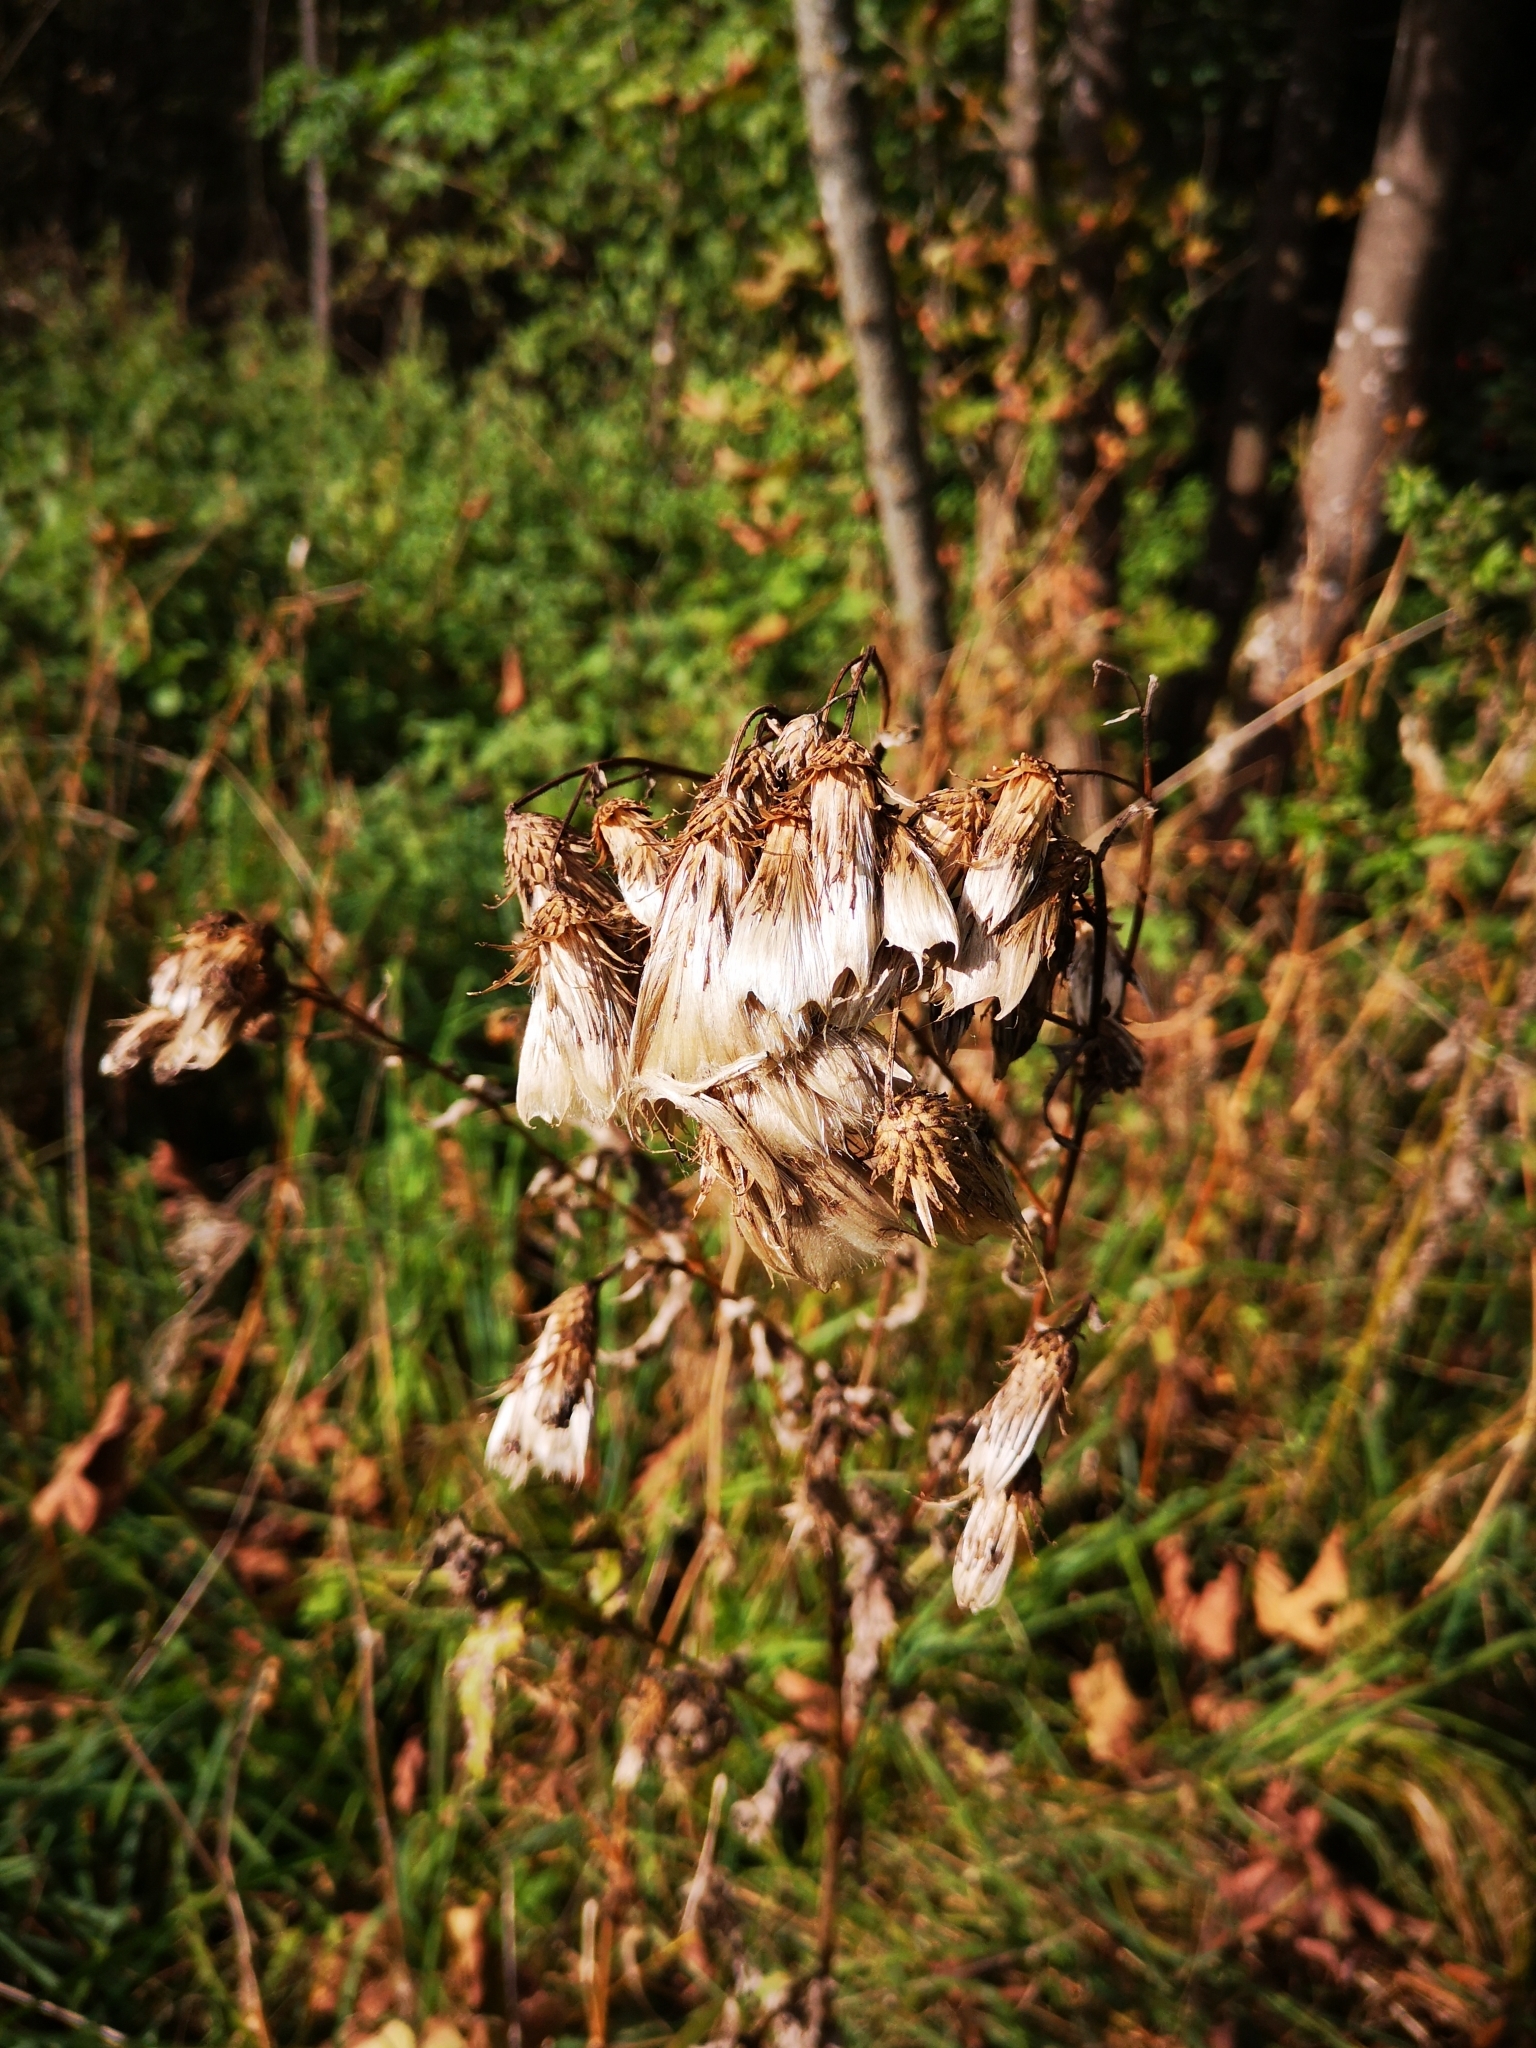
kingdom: Plantae
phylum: Tracheophyta
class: Magnoliopsida
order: Asterales
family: Asteraceae
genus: Cirsium
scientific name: Cirsium arvense
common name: Creeping thistle
